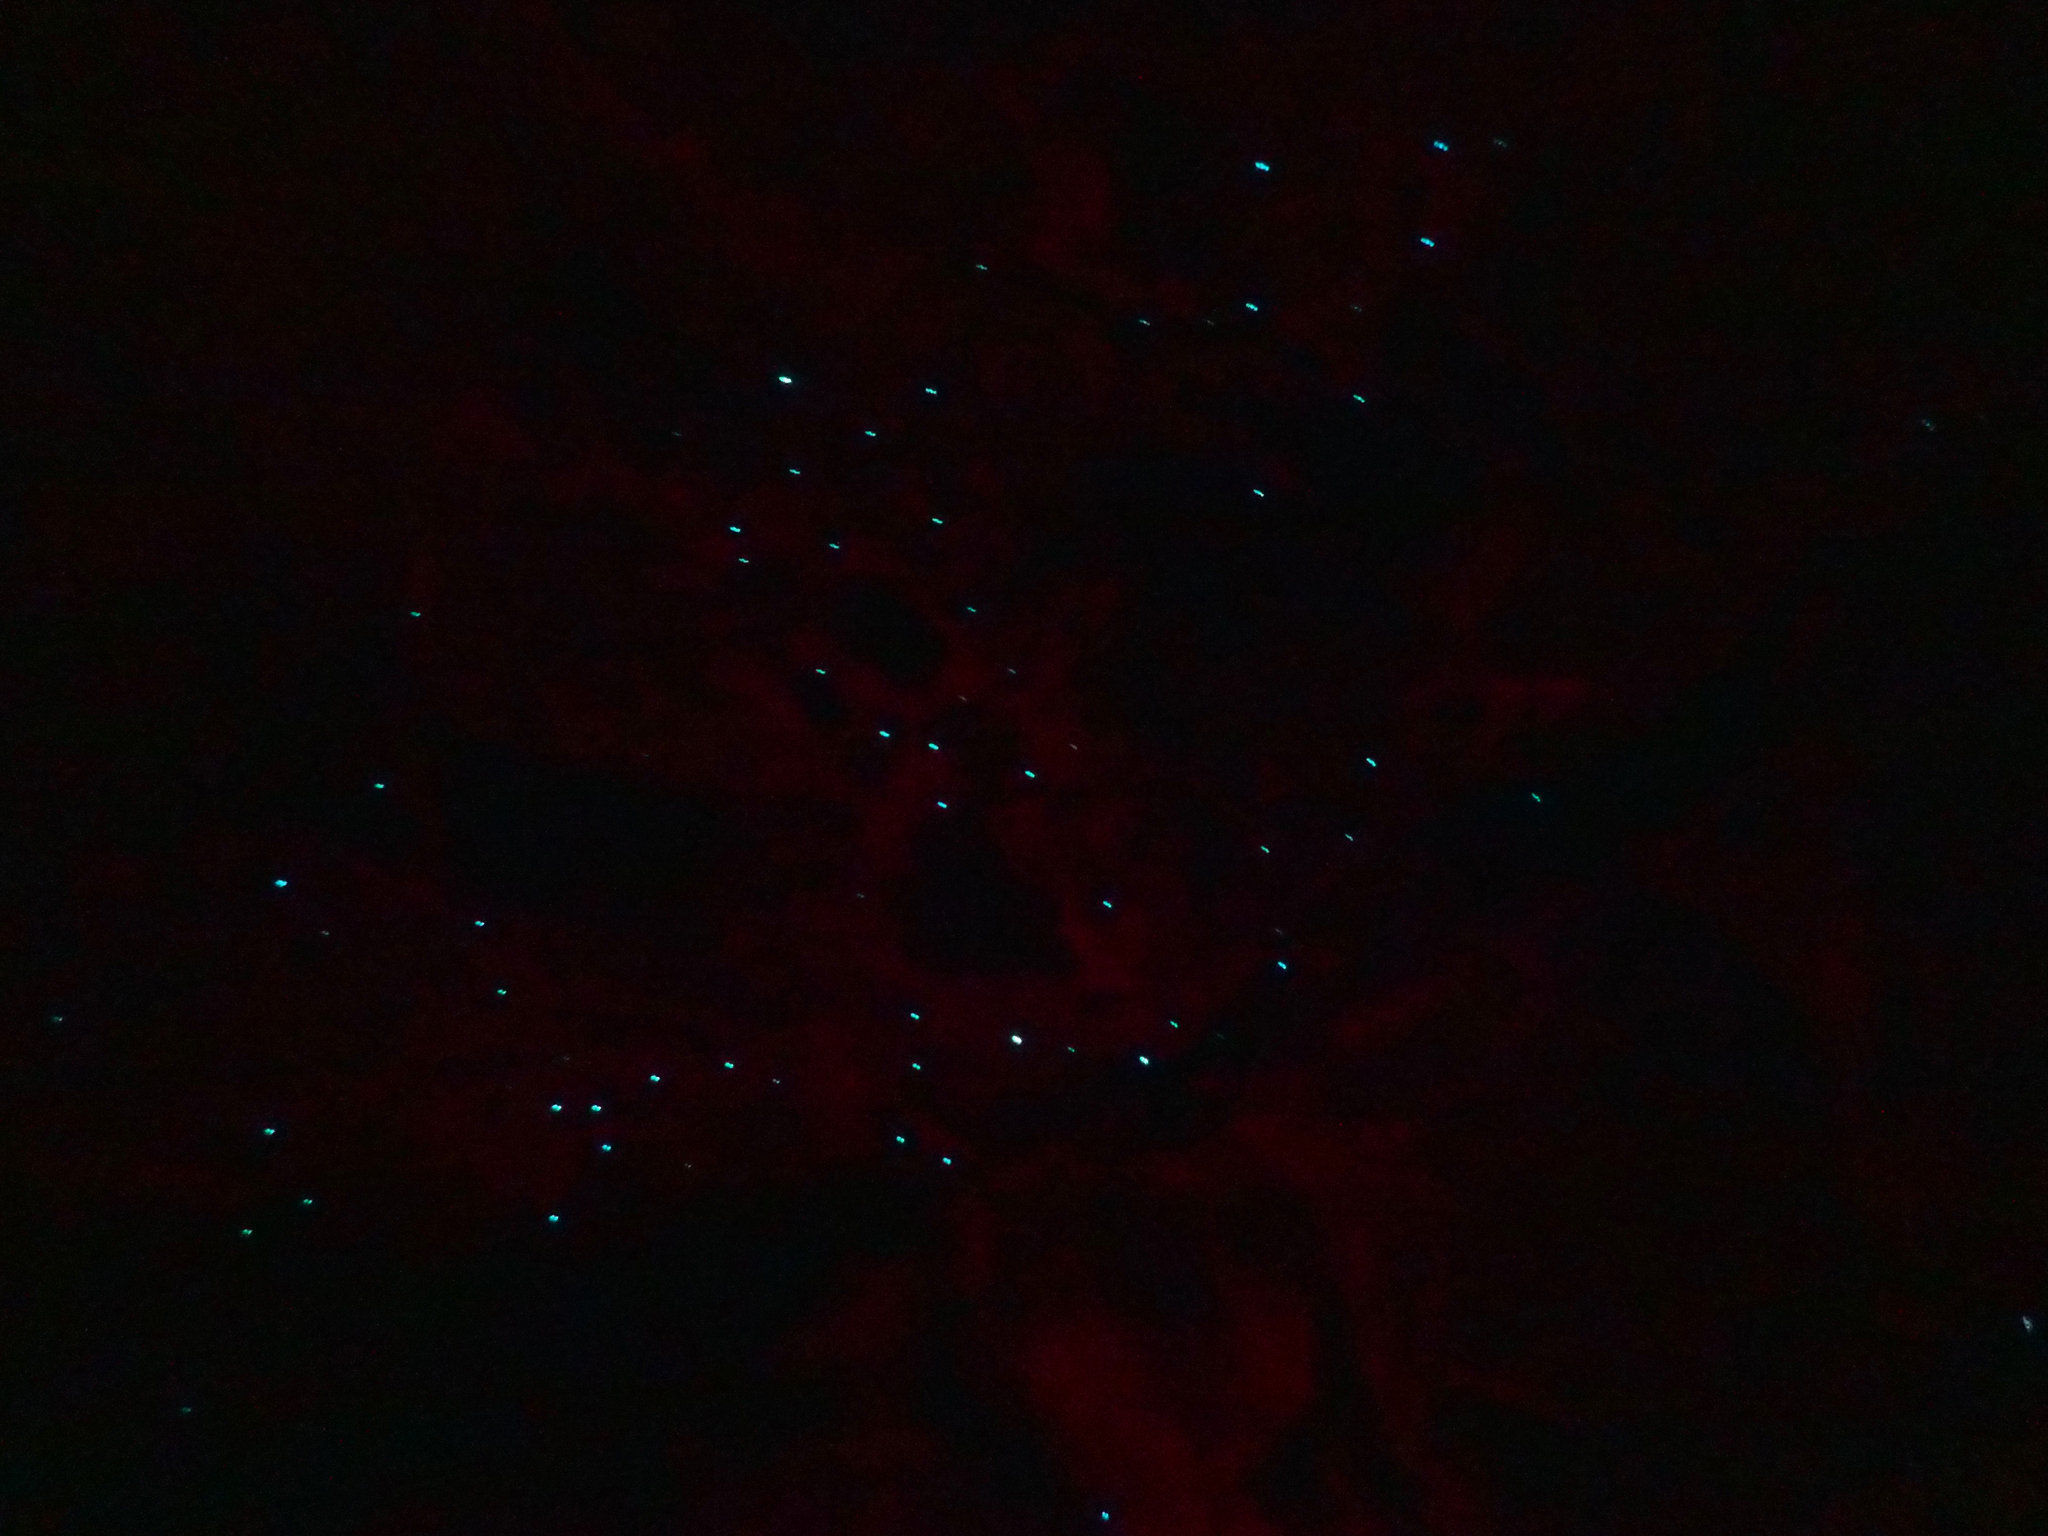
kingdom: Animalia
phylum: Arthropoda
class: Insecta
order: Diptera
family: Keroplatidae
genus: Arachnocampa
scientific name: Arachnocampa flava
